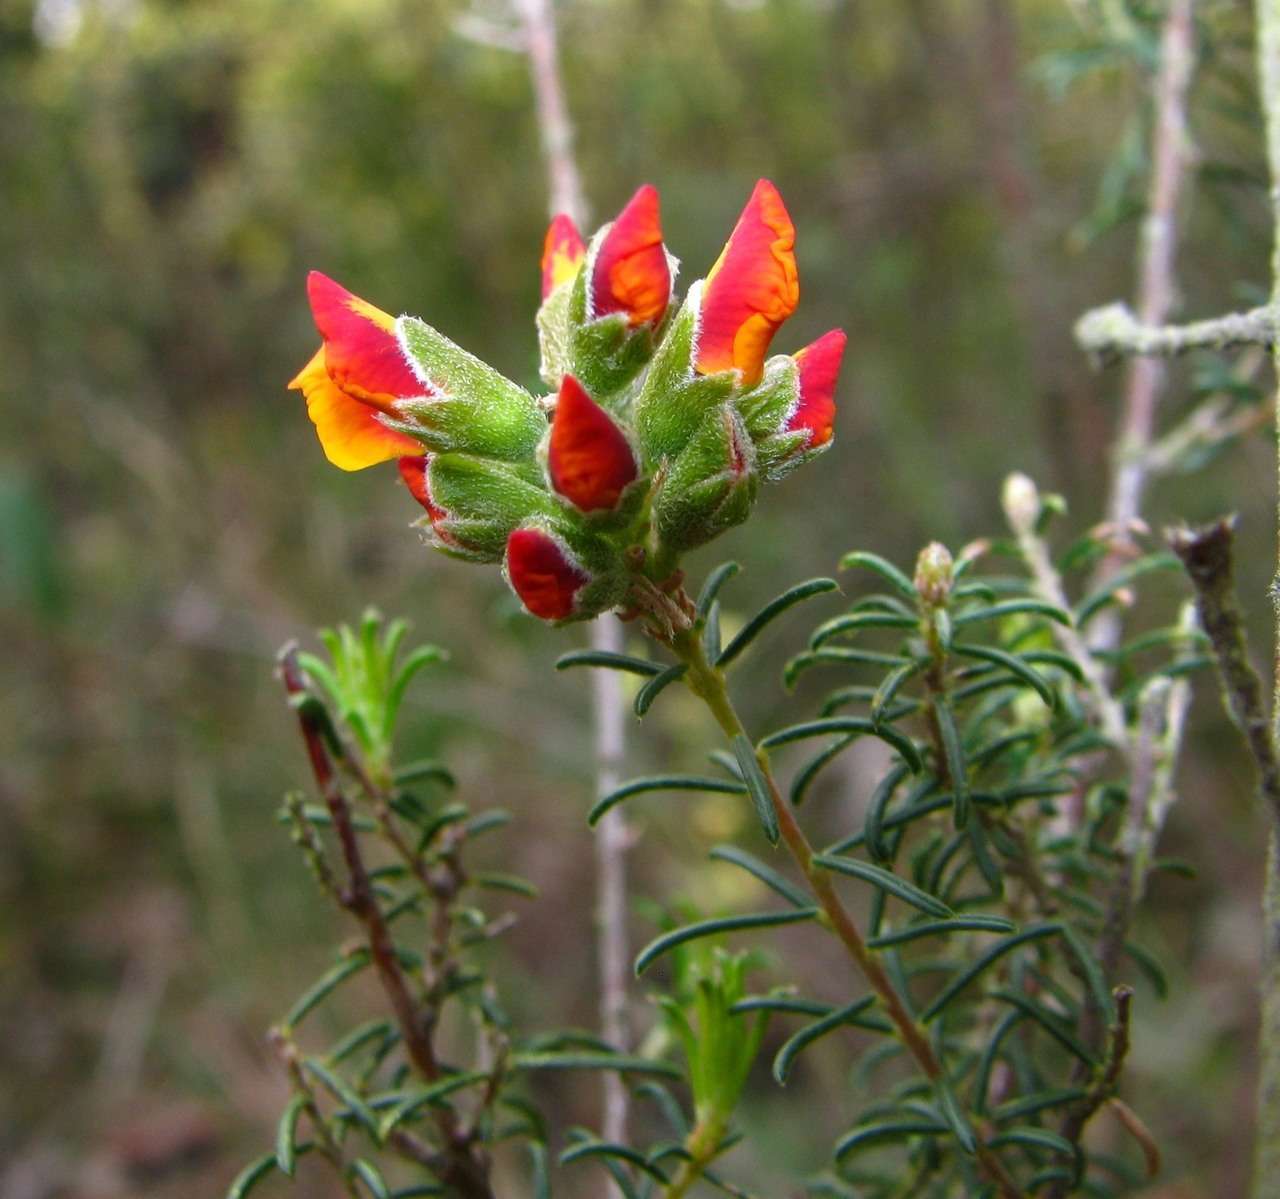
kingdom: Plantae
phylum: Tracheophyta
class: Magnoliopsida
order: Fabales
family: Fabaceae
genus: Dillwynia
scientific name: Dillwynia cinerascens
